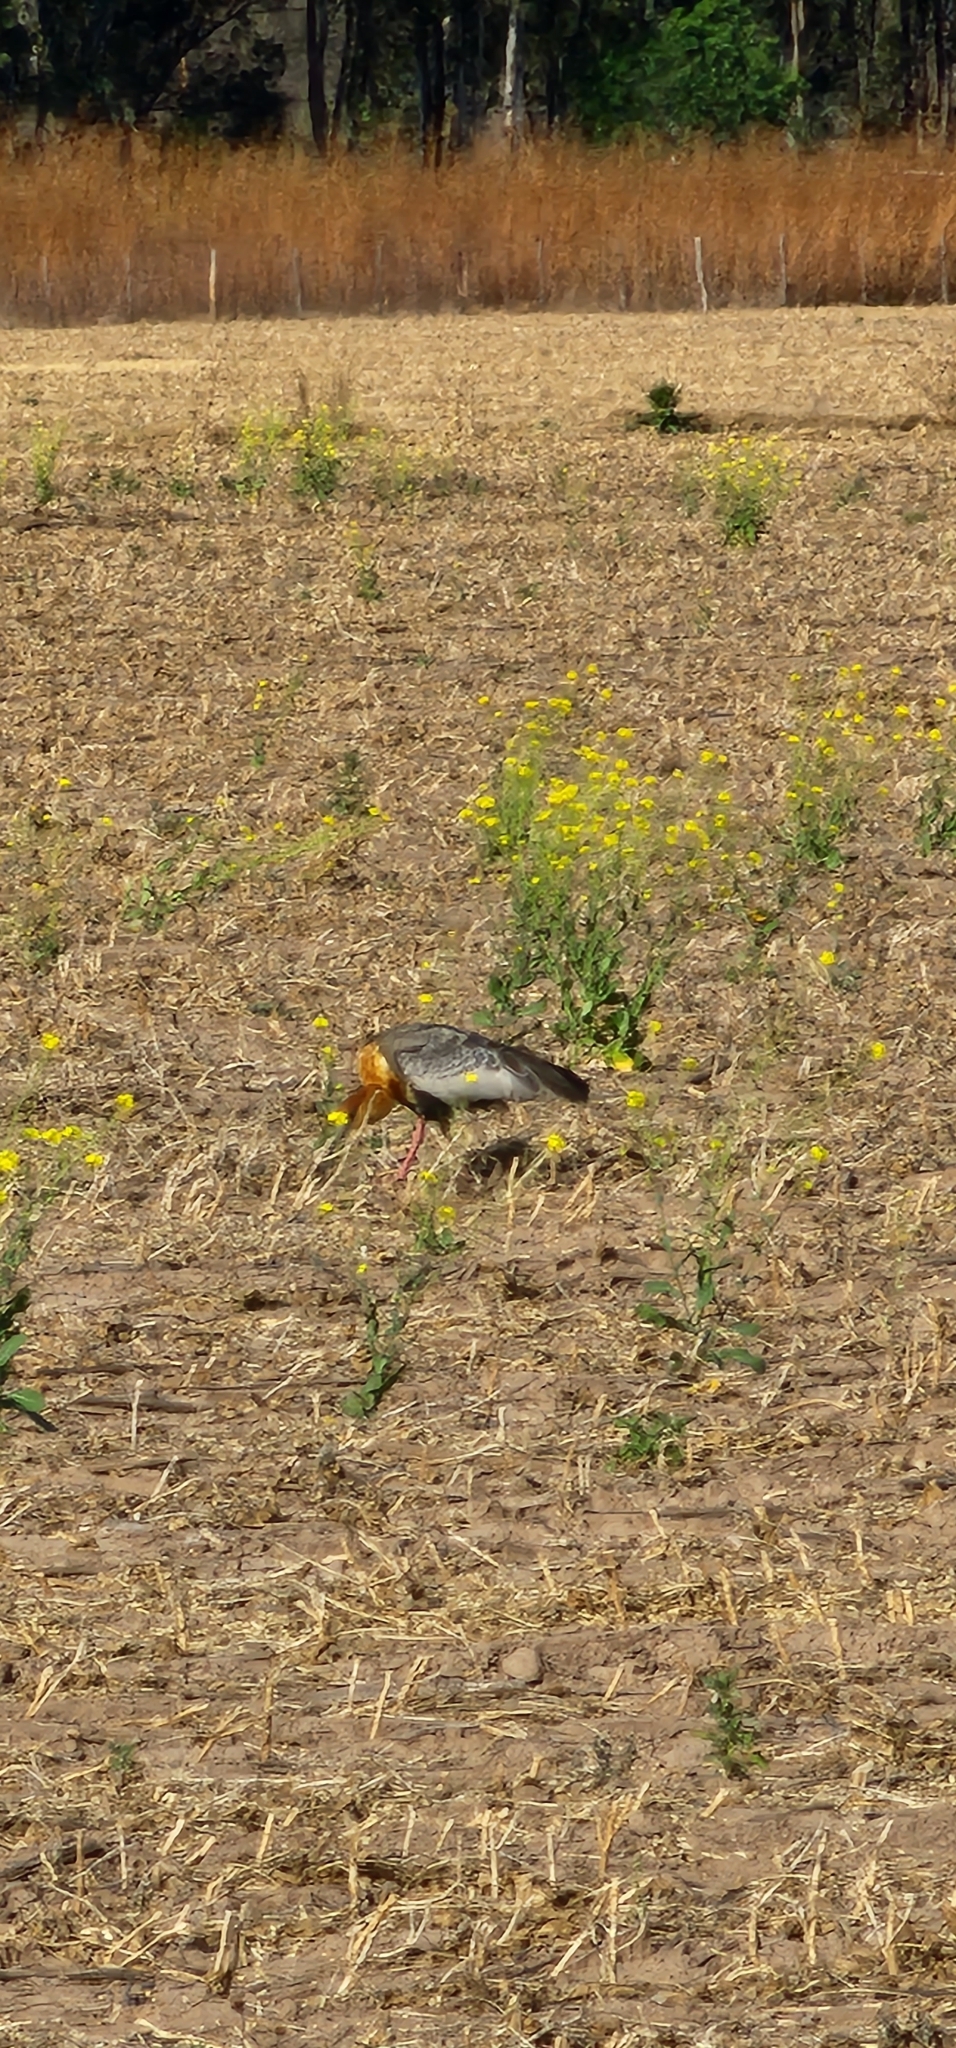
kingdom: Animalia
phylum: Chordata
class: Aves
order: Pelecaniformes
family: Threskiornithidae
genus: Theristicus
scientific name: Theristicus caudatus
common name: Buff-necked ibis
